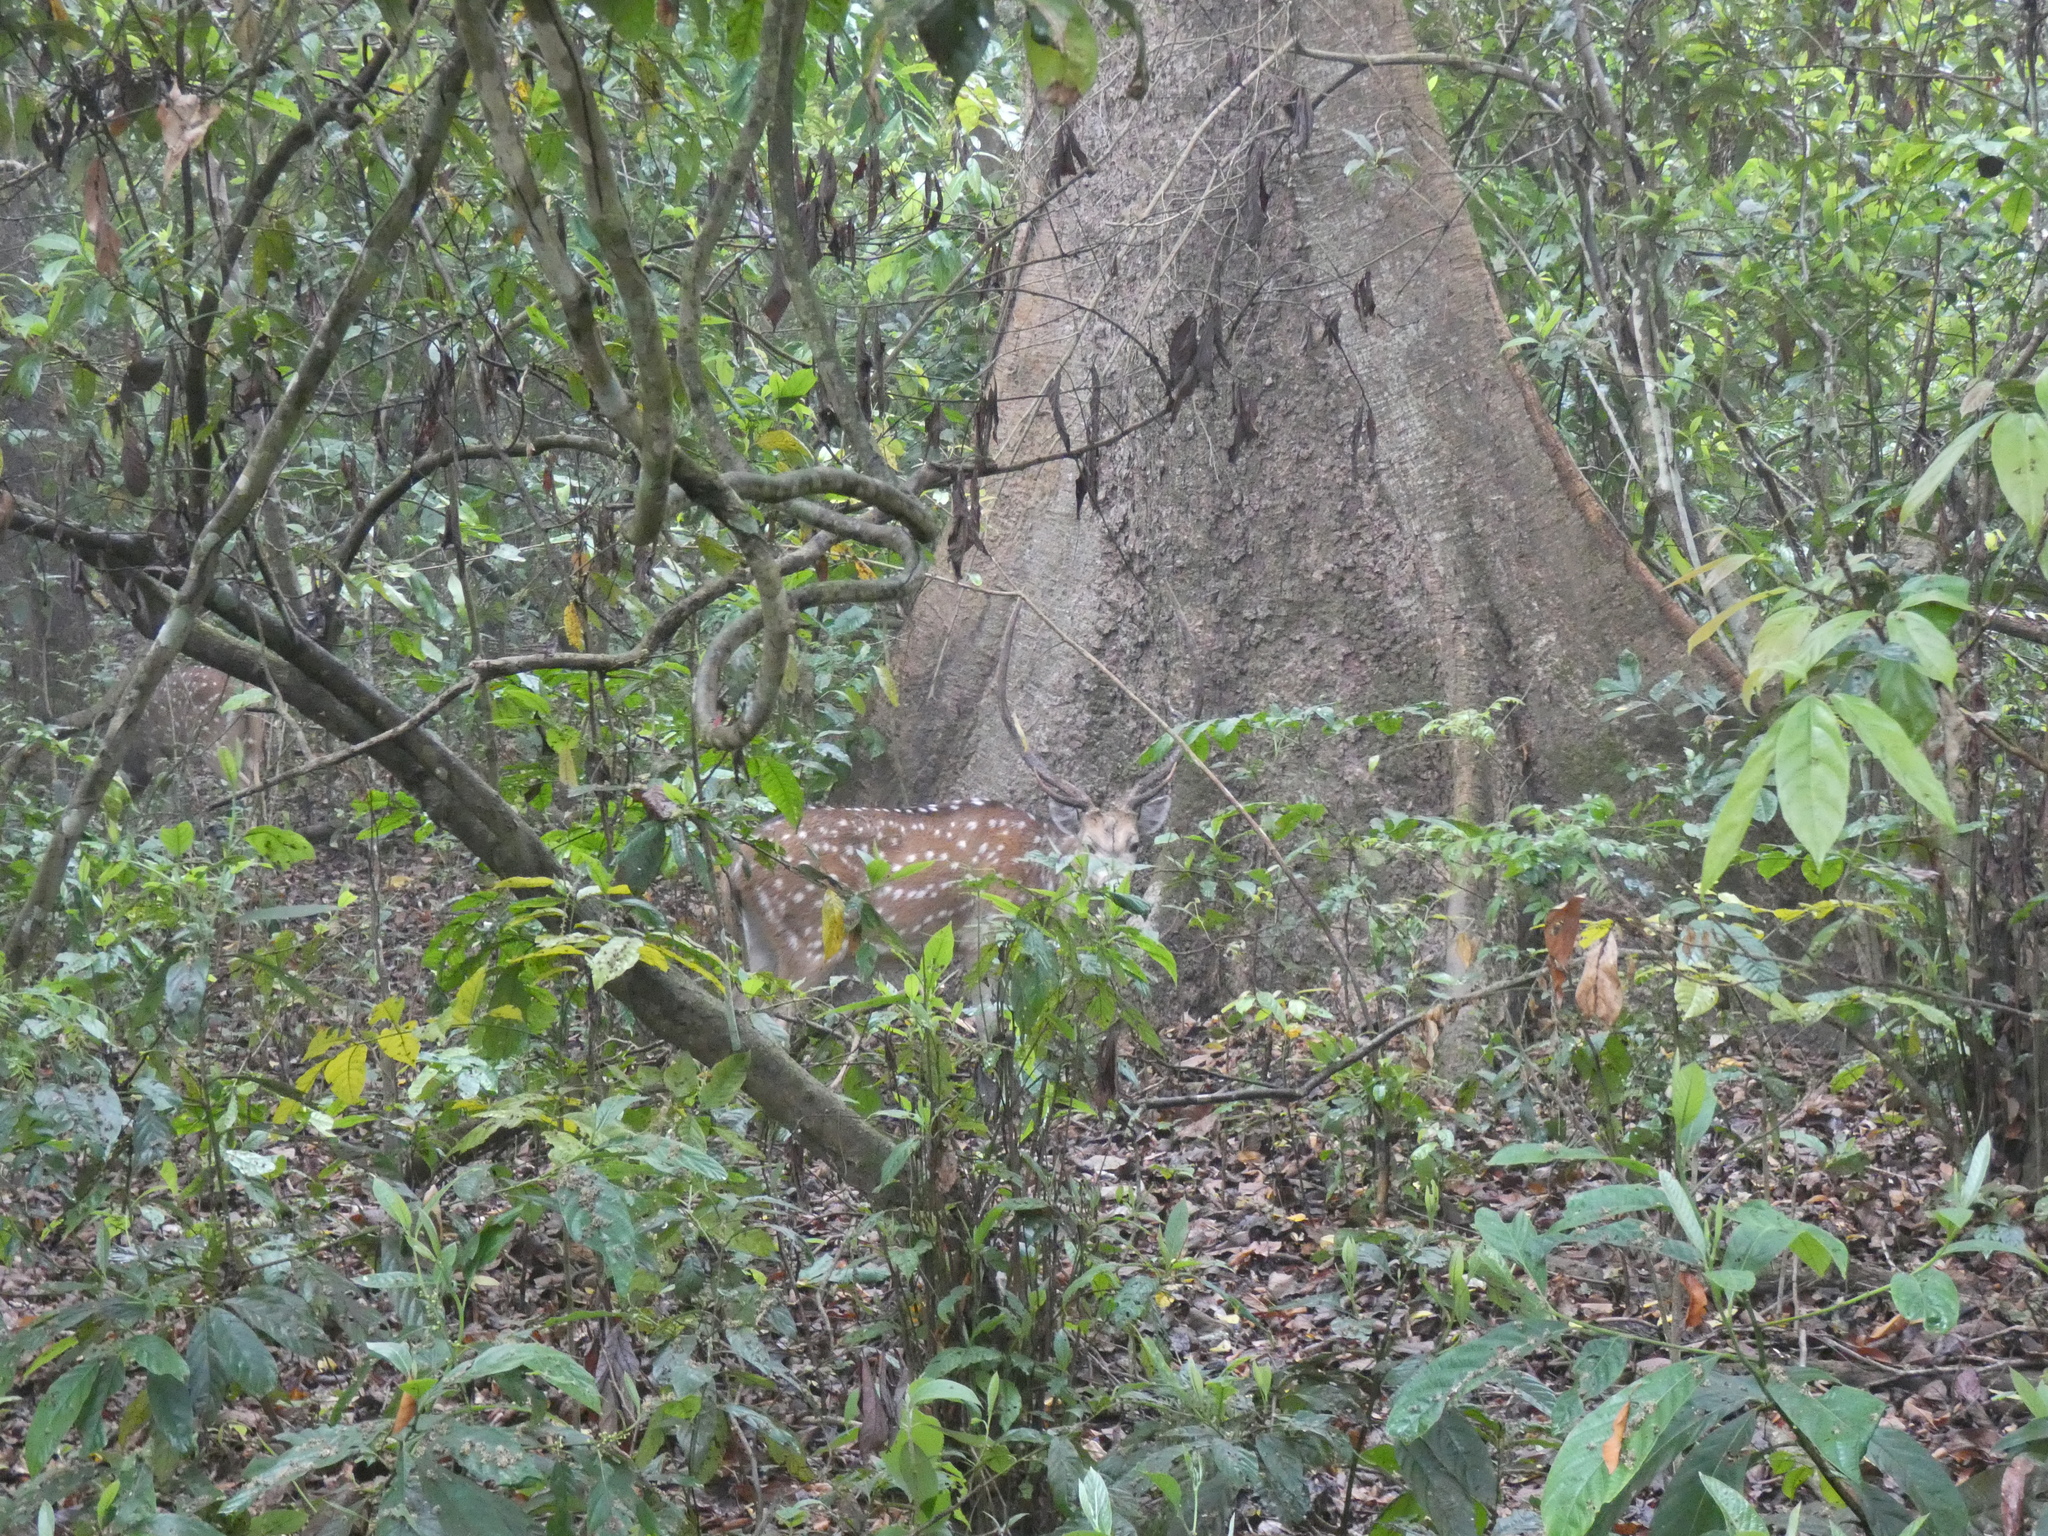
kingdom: Animalia
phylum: Chordata
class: Mammalia
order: Artiodactyla
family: Cervidae
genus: Axis
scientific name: Axis axis
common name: Chital
